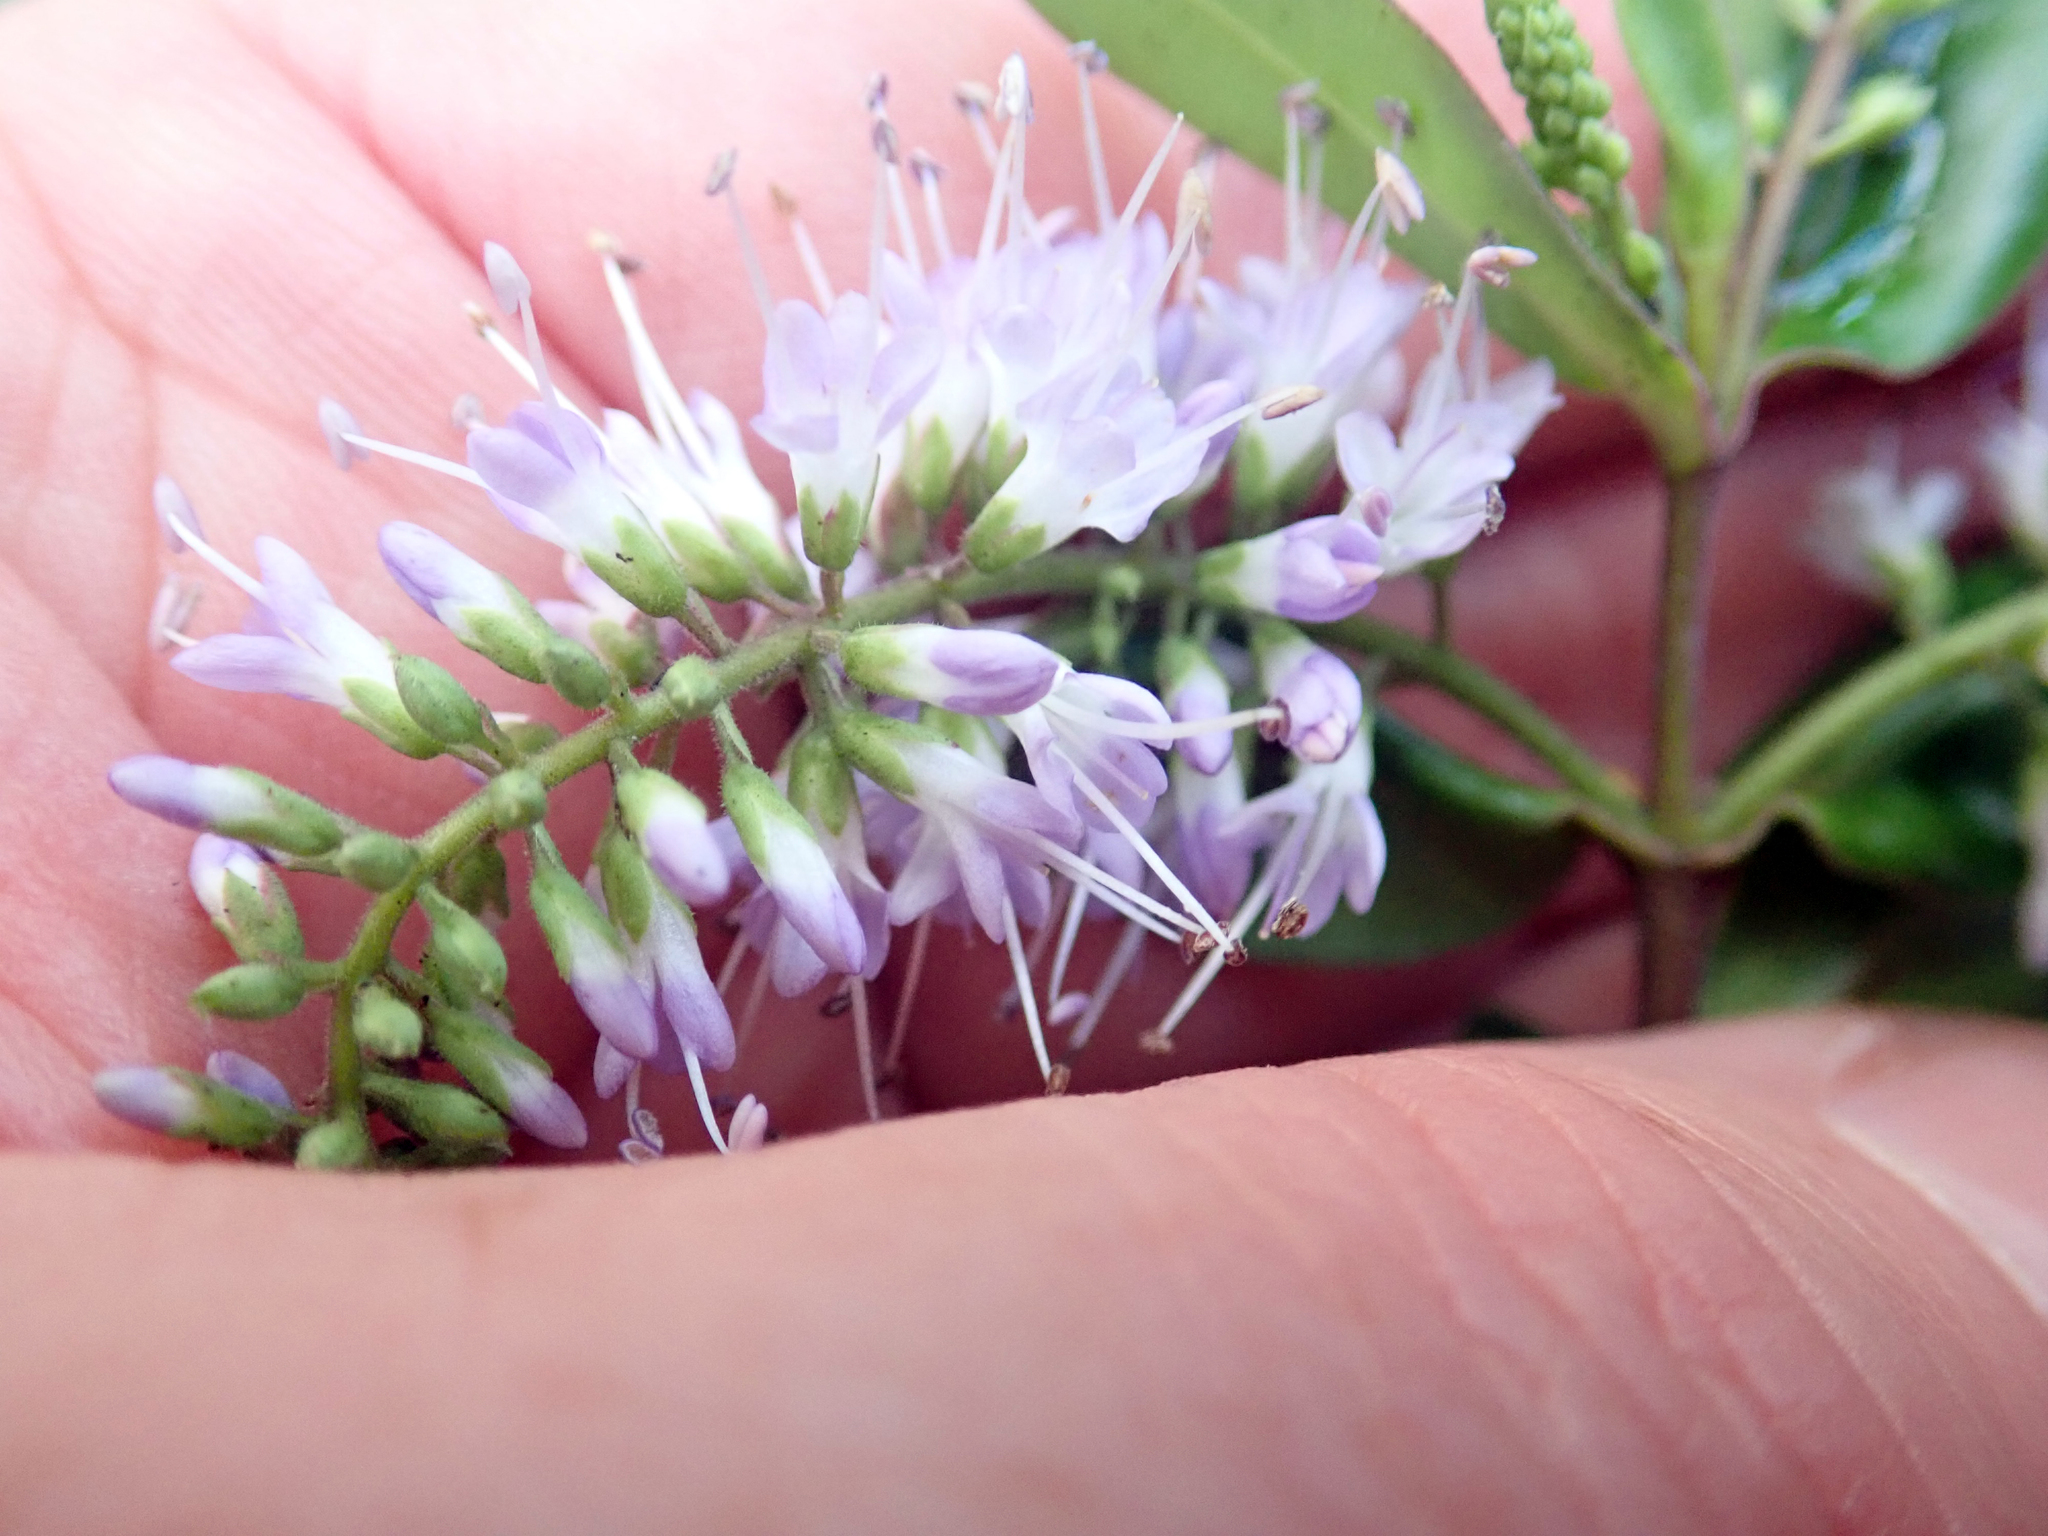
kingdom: Plantae
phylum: Tracheophyta
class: Magnoliopsida
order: Lamiales
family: Plantaginaceae
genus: Veronica
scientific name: Veronica bishopiana
